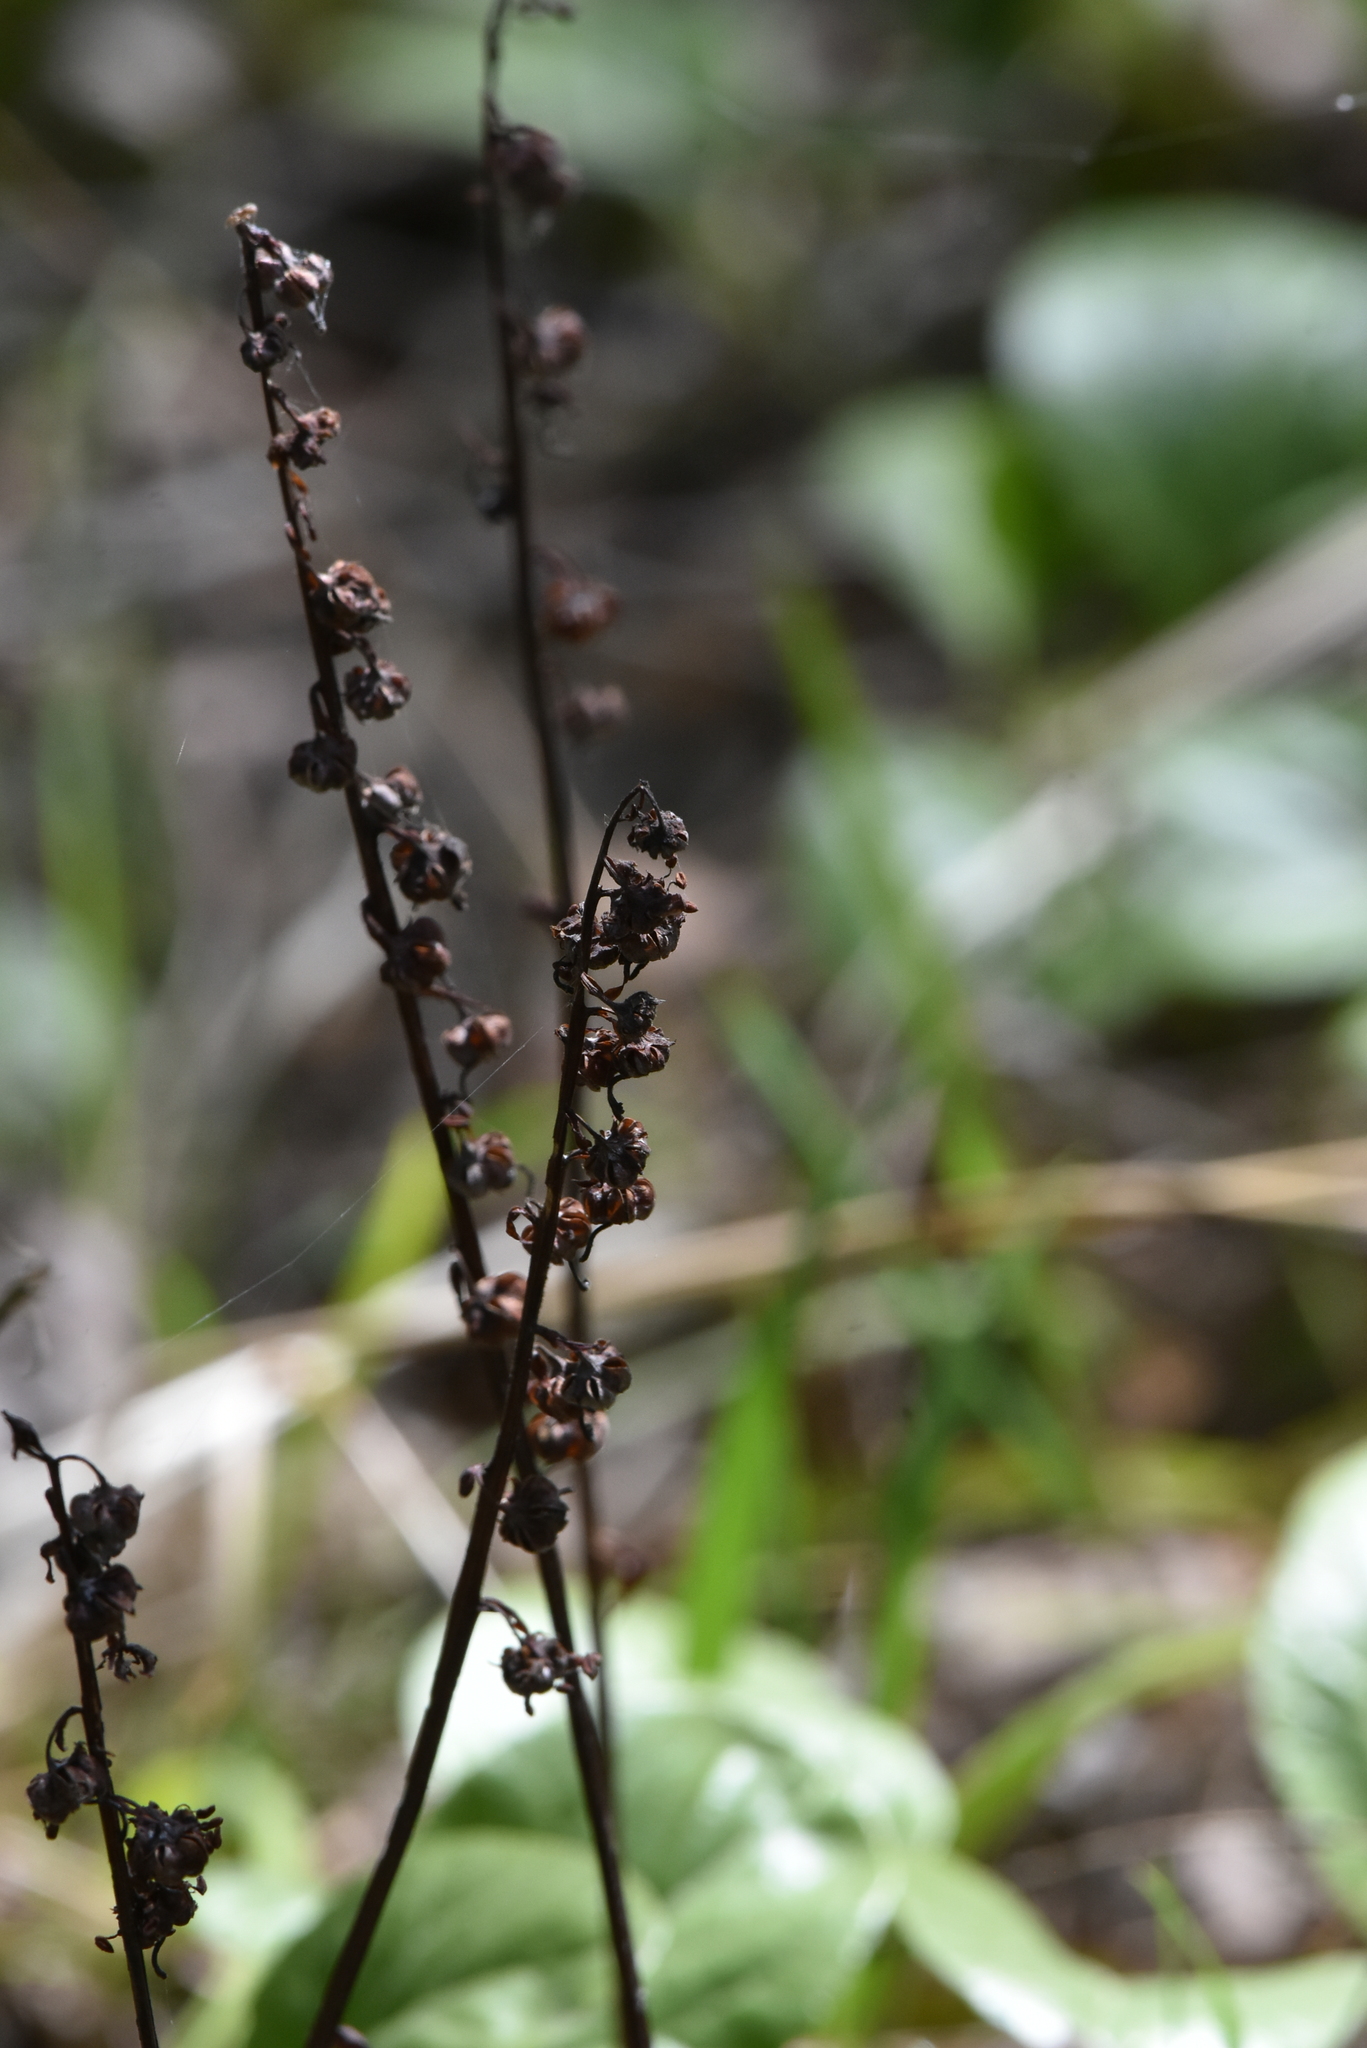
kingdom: Plantae
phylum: Tracheophyta
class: Magnoliopsida
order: Ericales
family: Ericaceae
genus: Pyrola
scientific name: Pyrola rotundifolia
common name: Round-leaved wintergreen
